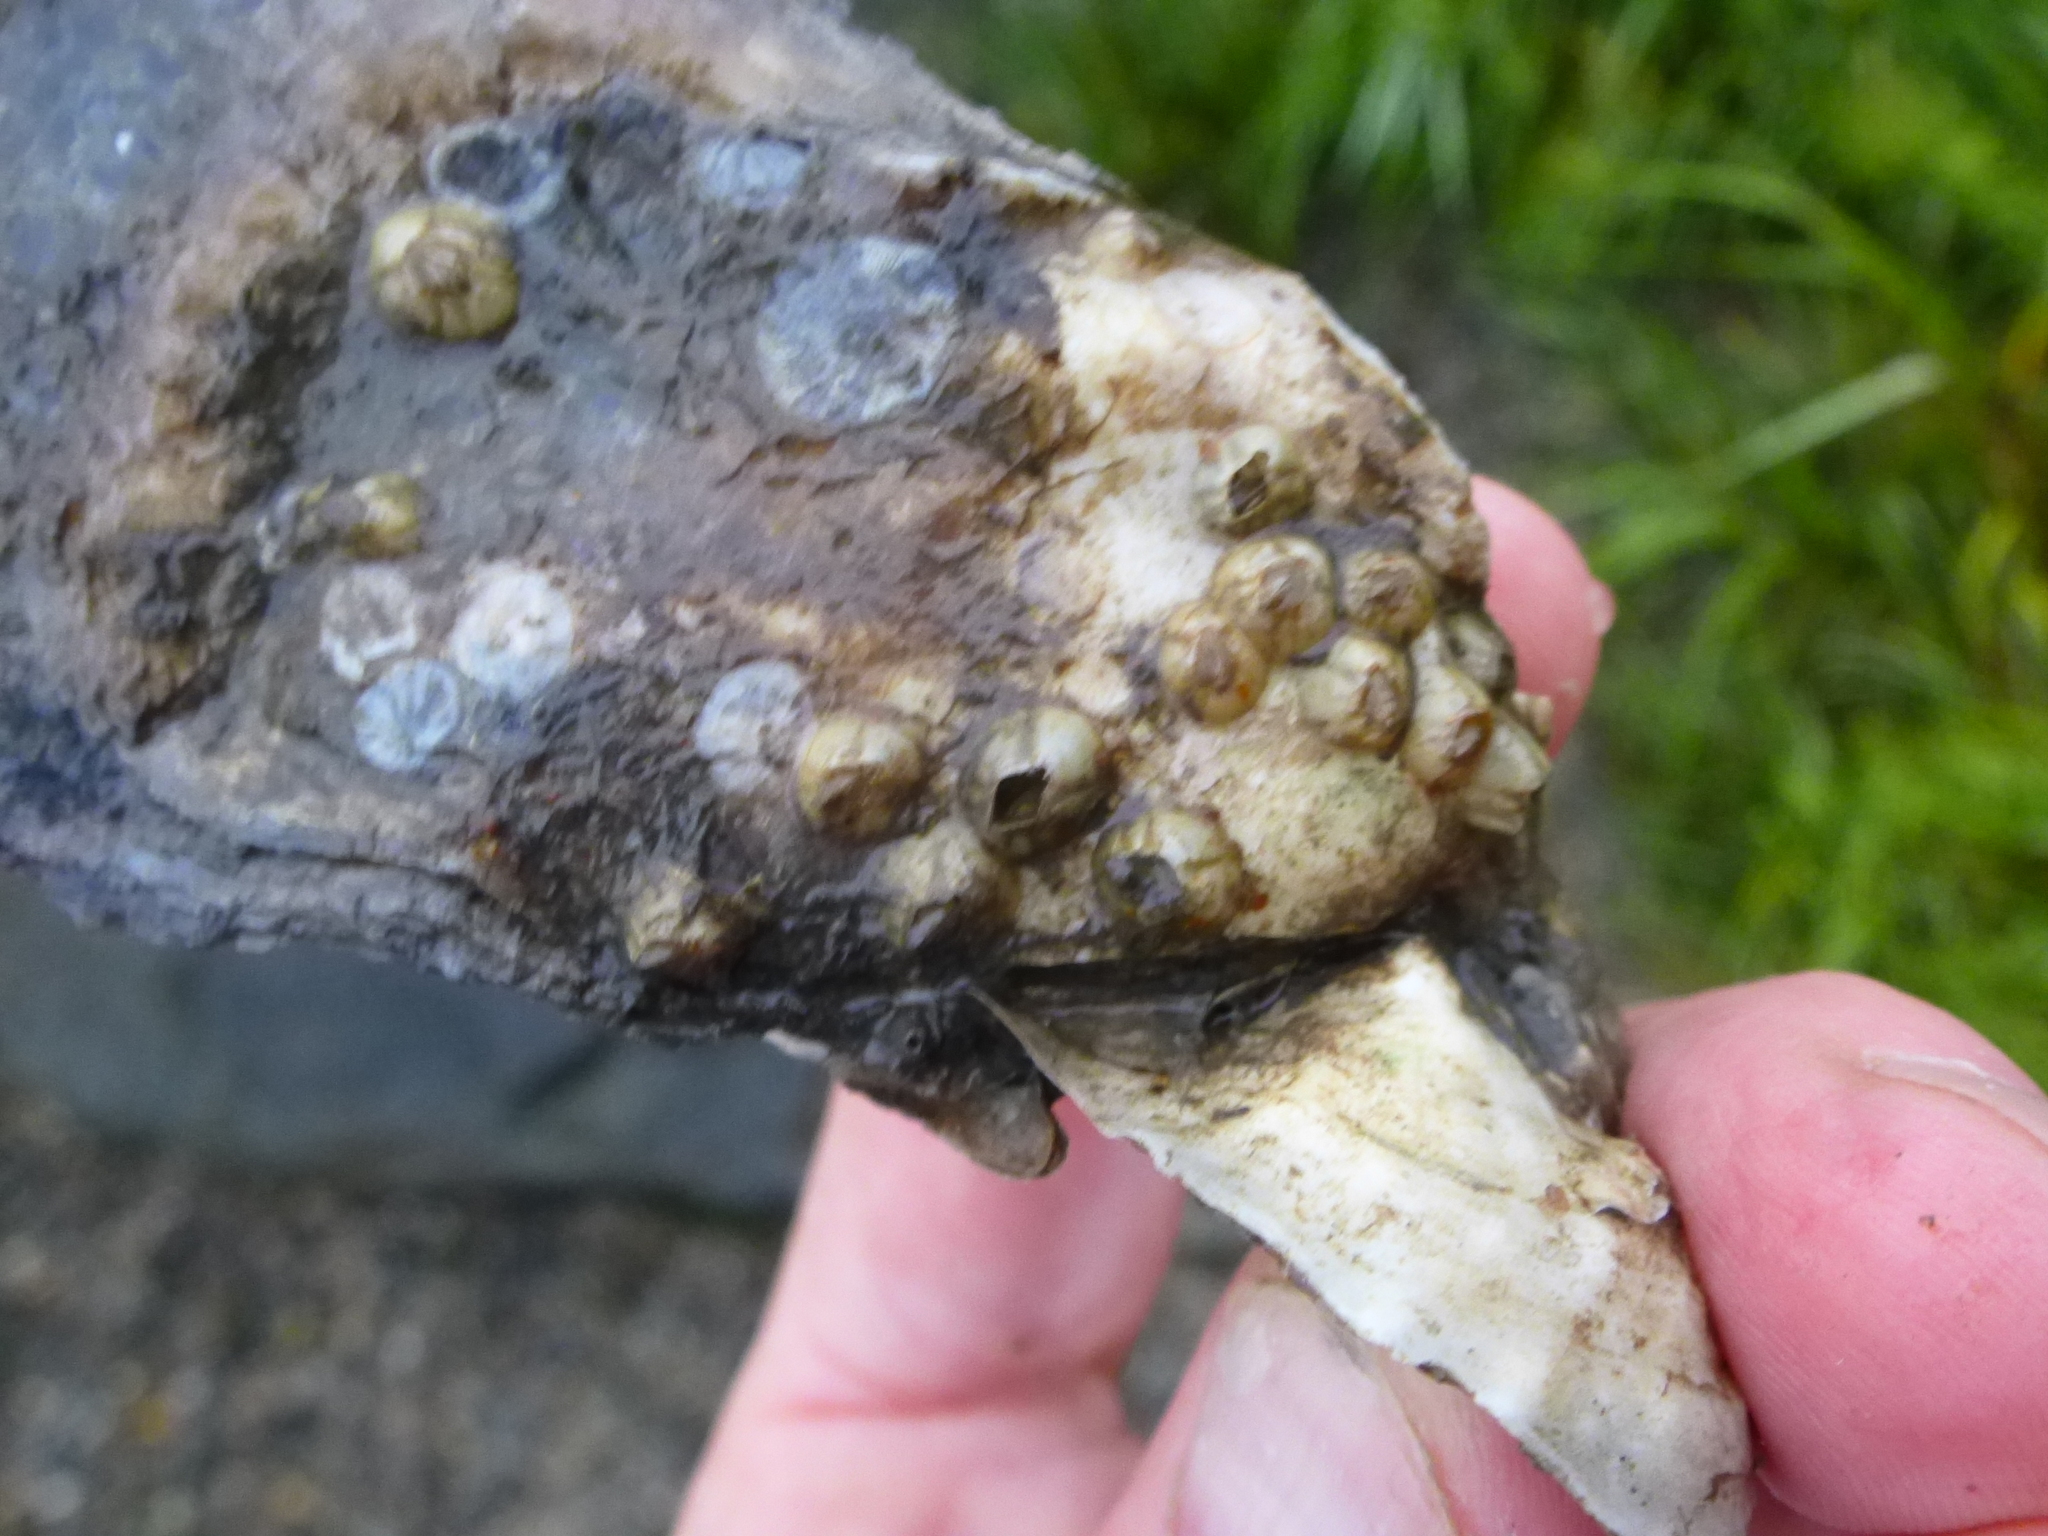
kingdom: Animalia
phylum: Mollusca
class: Bivalvia
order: Ostreida
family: Ostreidae
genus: Crassostrea
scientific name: Crassostrea virginica
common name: American oyster
